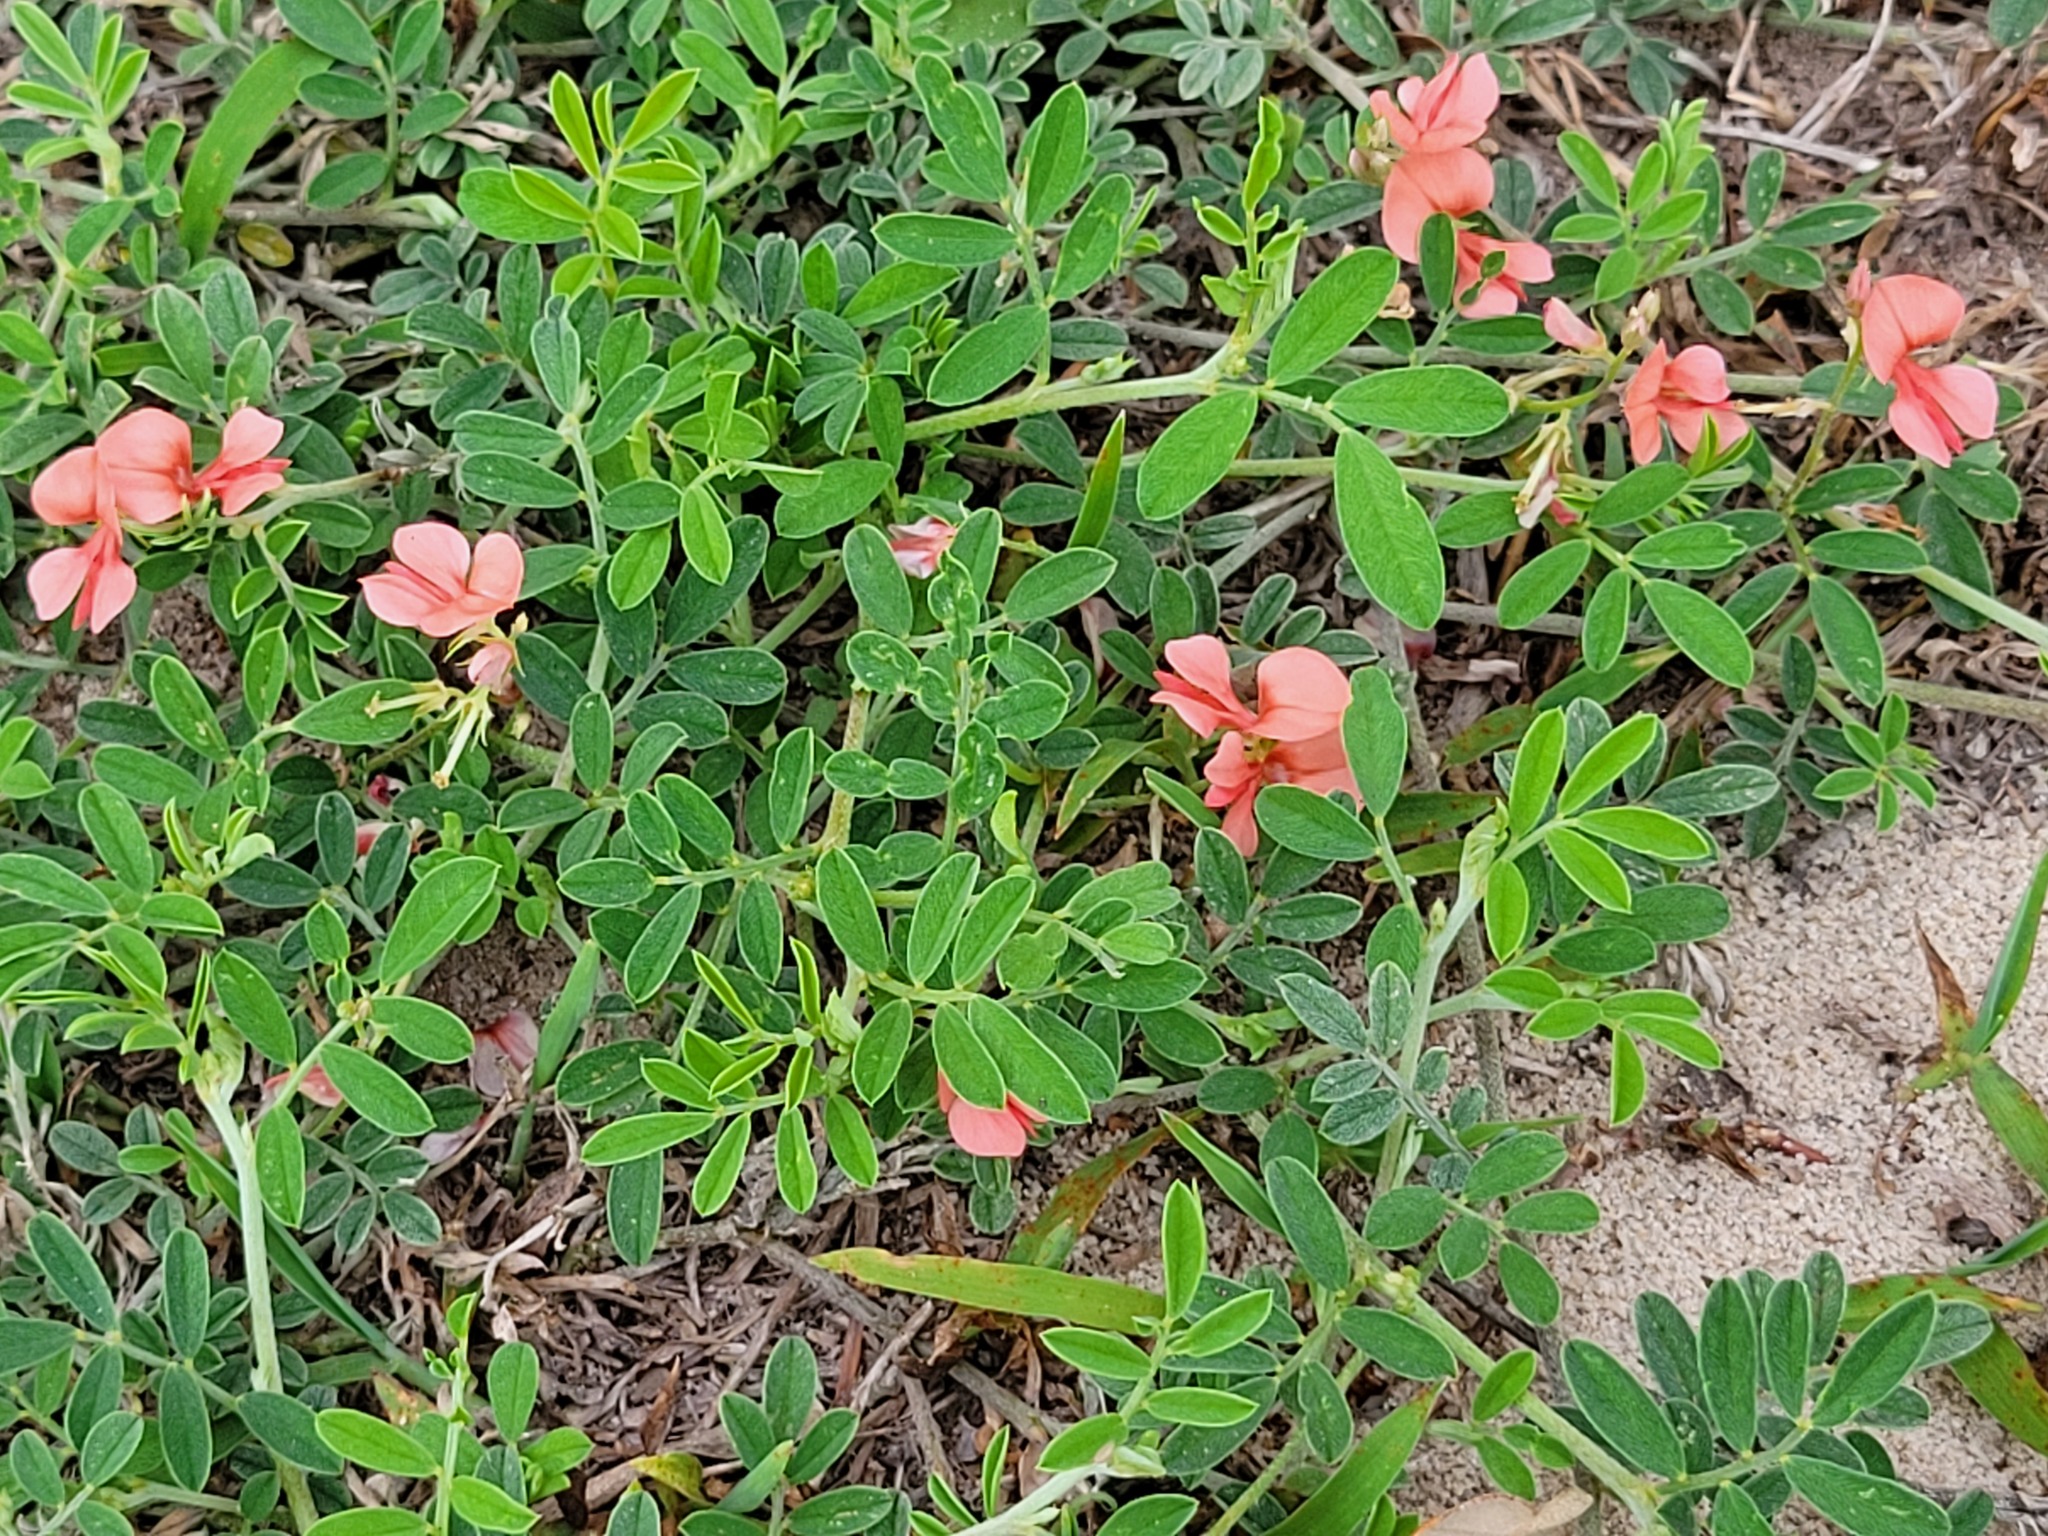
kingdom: Plantae
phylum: Tracheophyta
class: Magnoliopsida
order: Fabales
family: Fabaceae
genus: Indigofera
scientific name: Indigofera miniata
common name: Coast indigo
